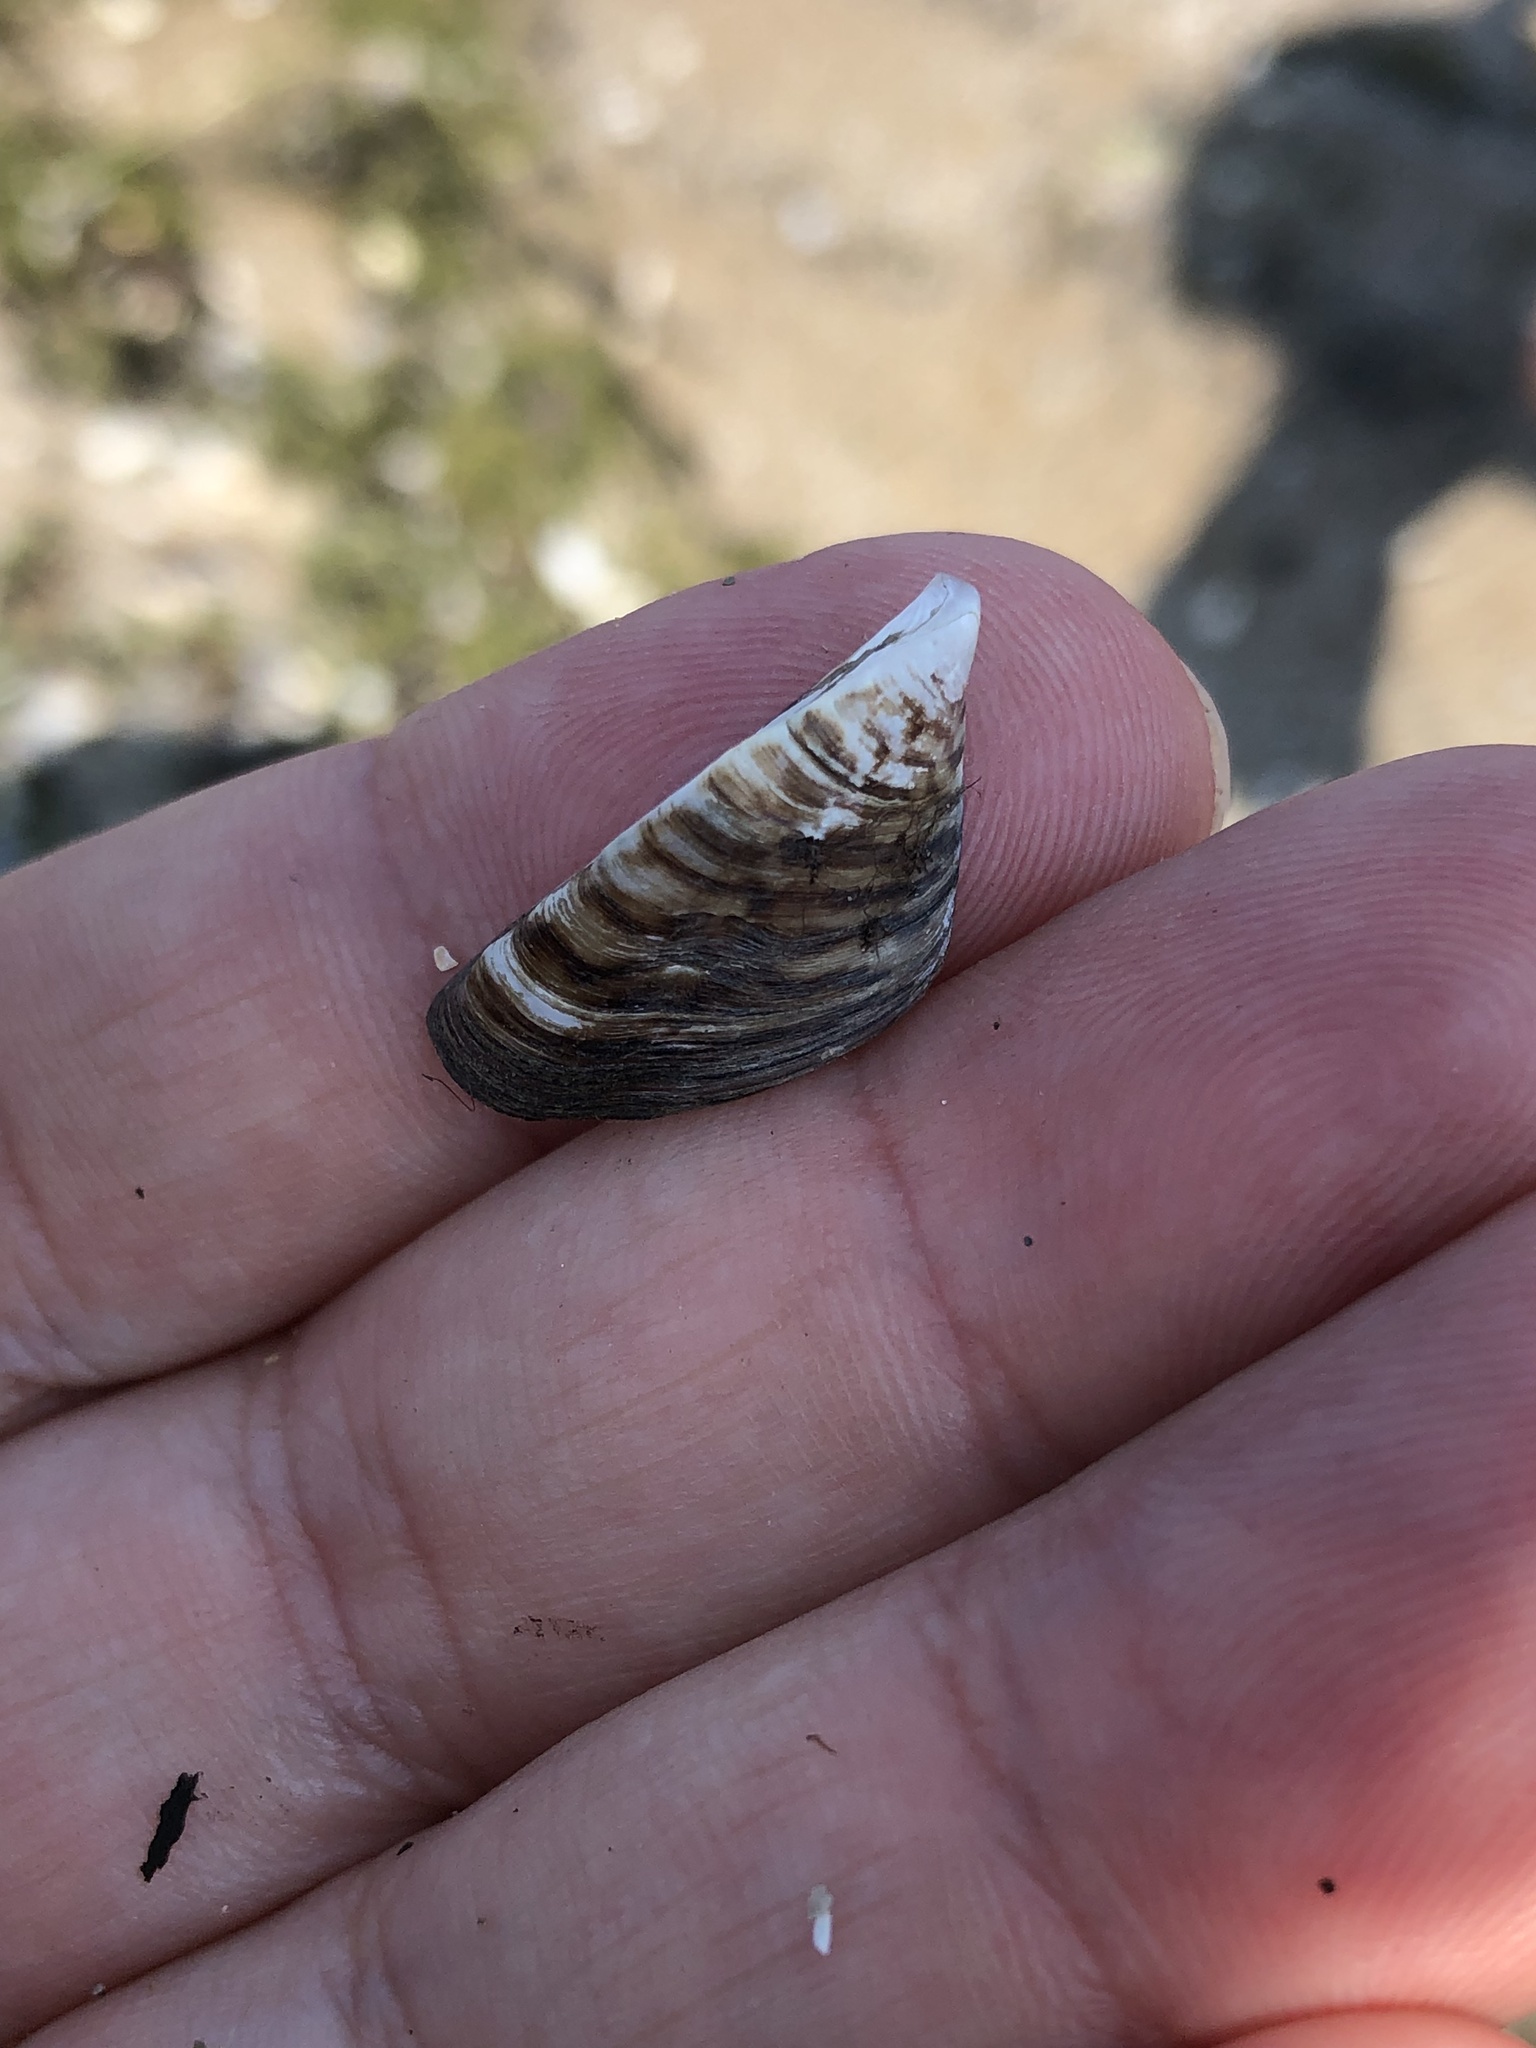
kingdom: Animalia
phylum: Mollusca
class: Bivalvia
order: Myida
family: Dreissenidae
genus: Dreissena
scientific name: Dreissena polymorpha
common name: Zebra mussel
